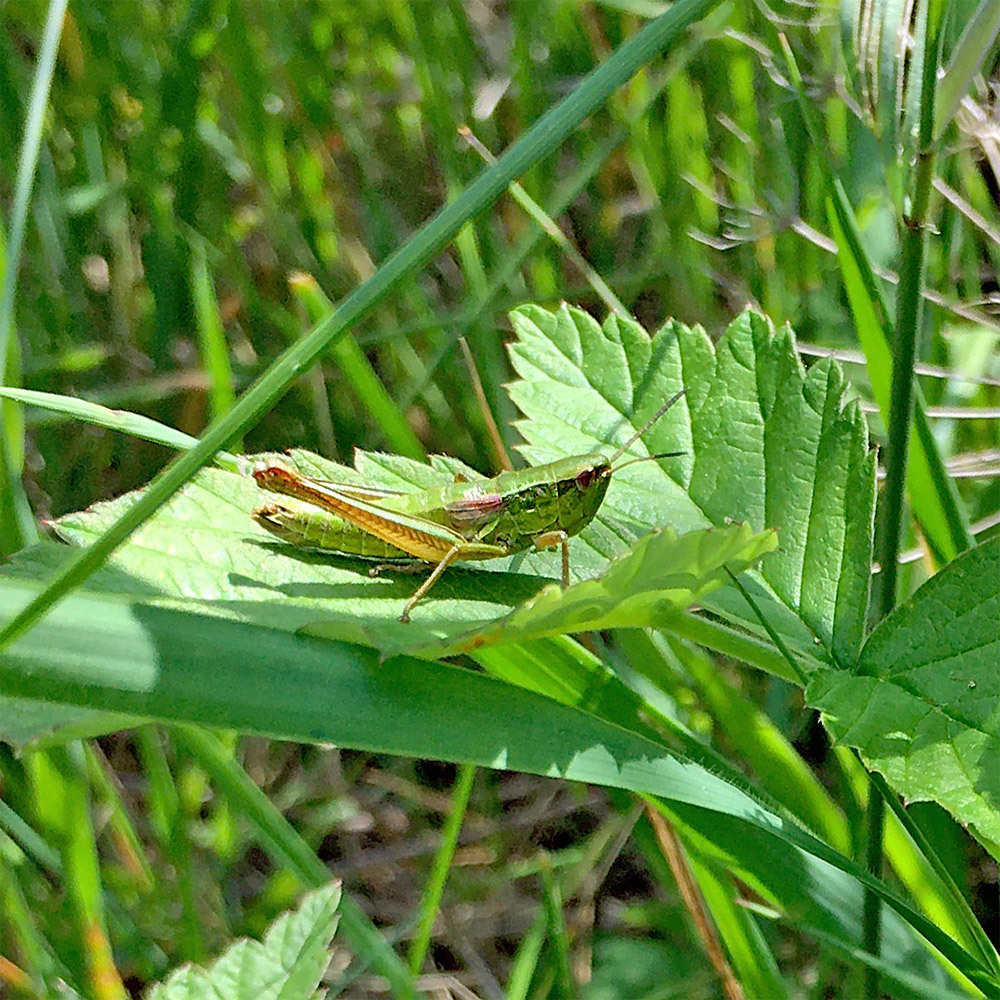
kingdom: Animalia
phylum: Arthropoda
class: Insecta
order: Orthoptera
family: Acrididae
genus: Euthystira
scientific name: Euthystira brachyptera
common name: Small gold grasshopper
